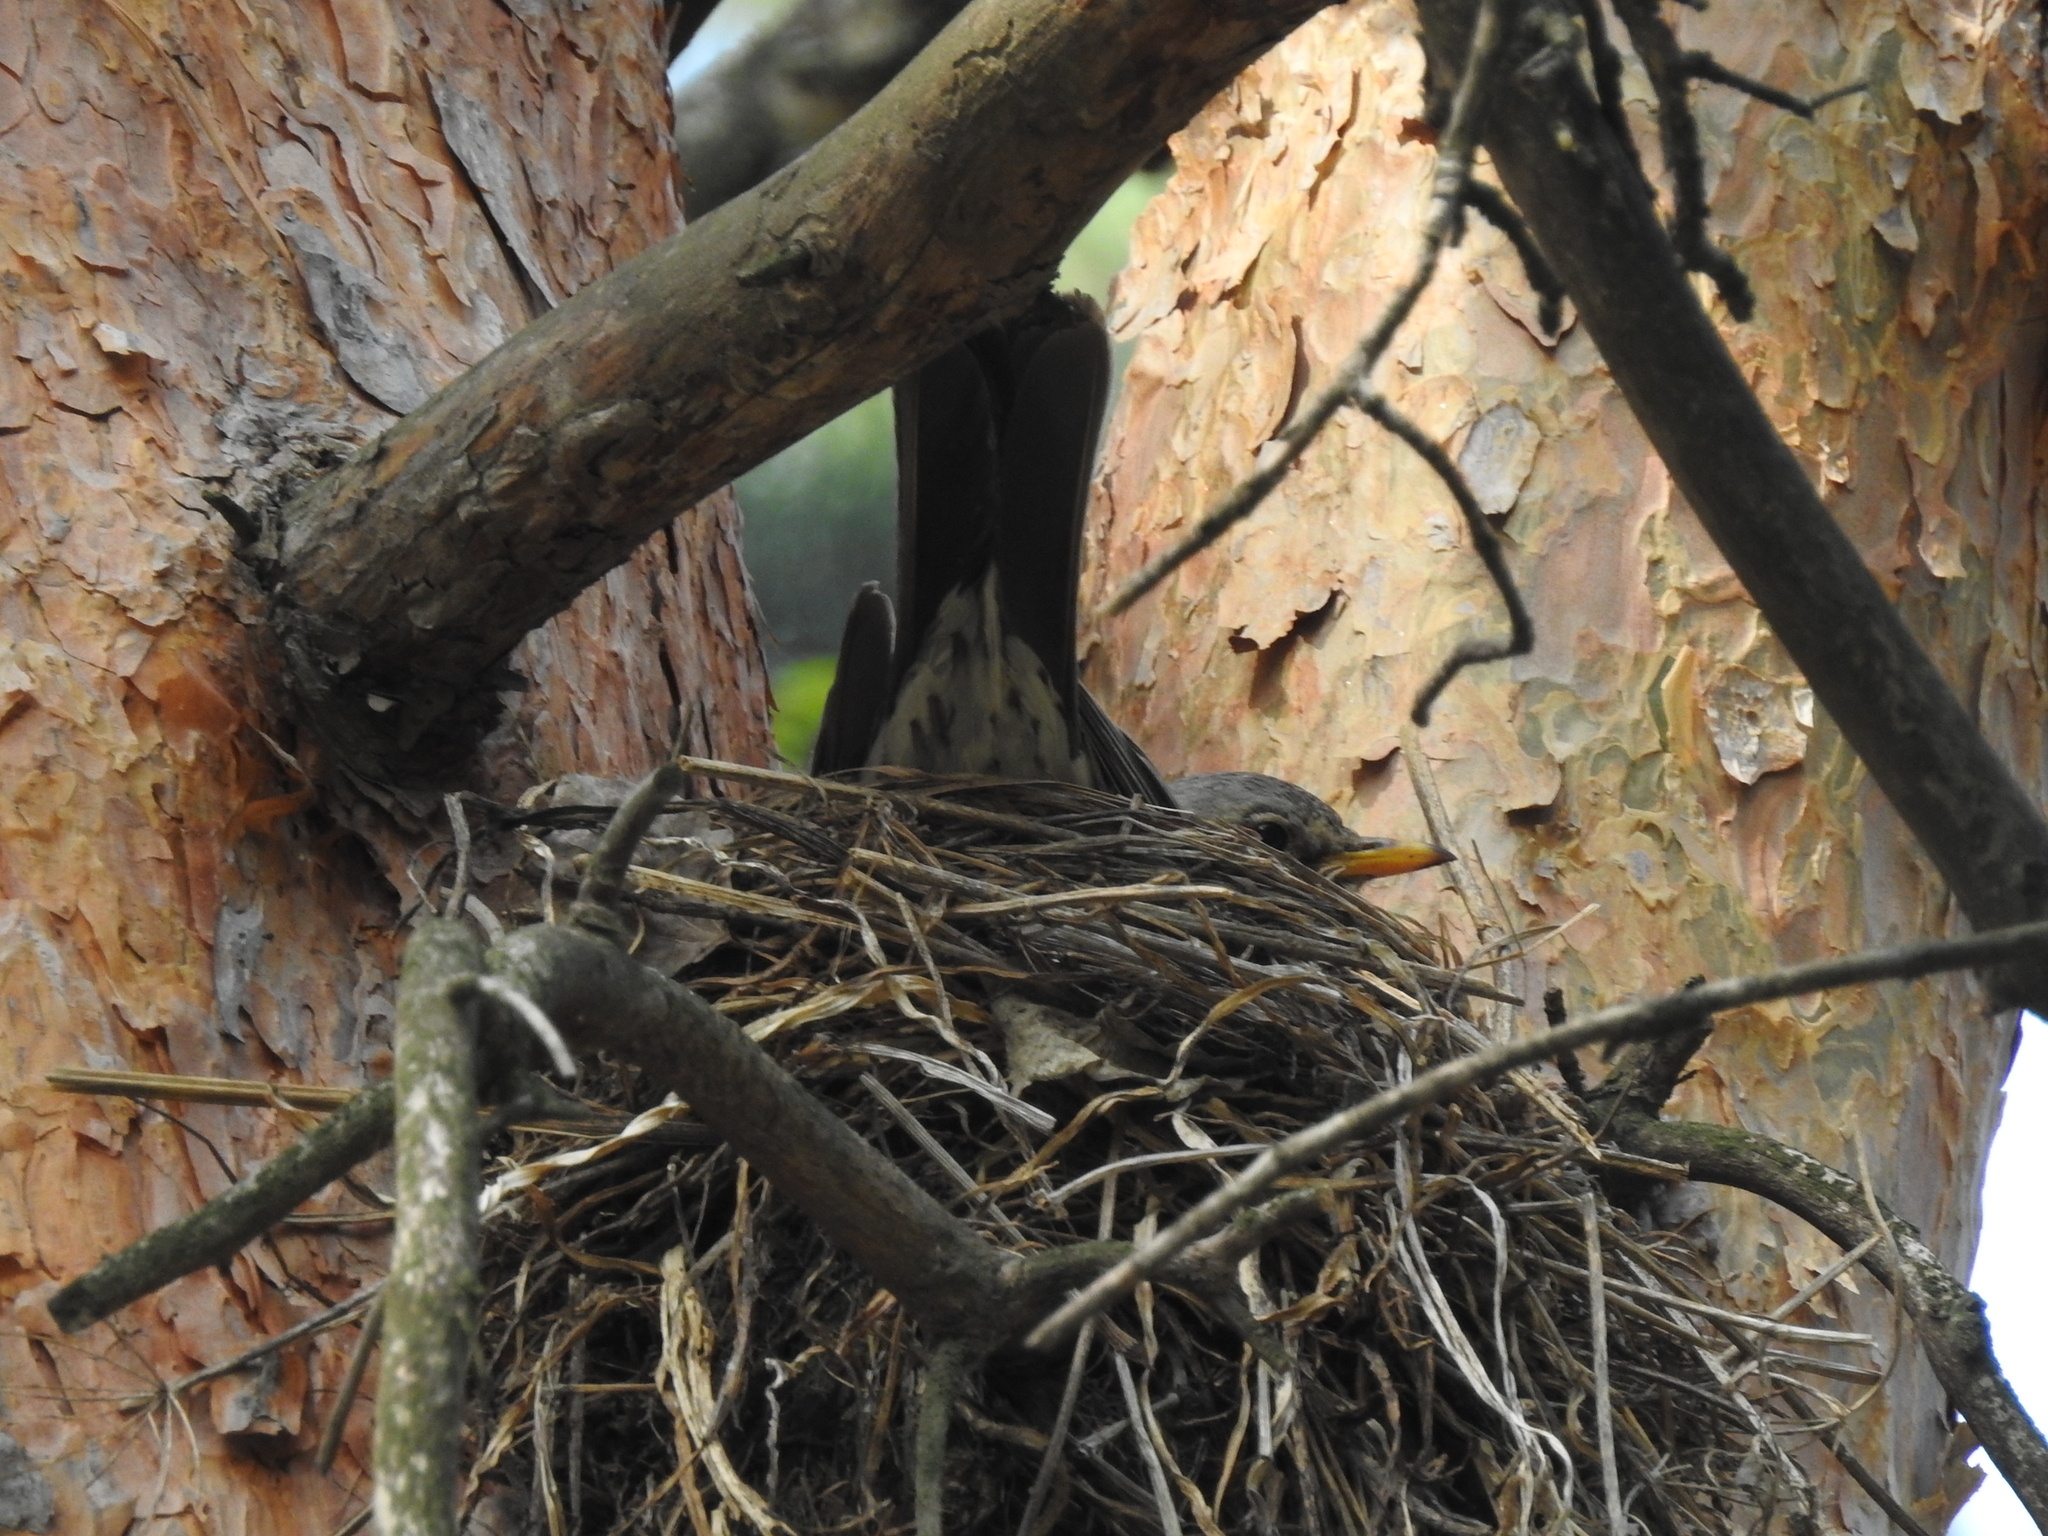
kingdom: Animalia
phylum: Chordata
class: Aves
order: Passeriformes
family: Turdidae
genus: Turdus
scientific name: Turdus pilaris
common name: Fieldfare
